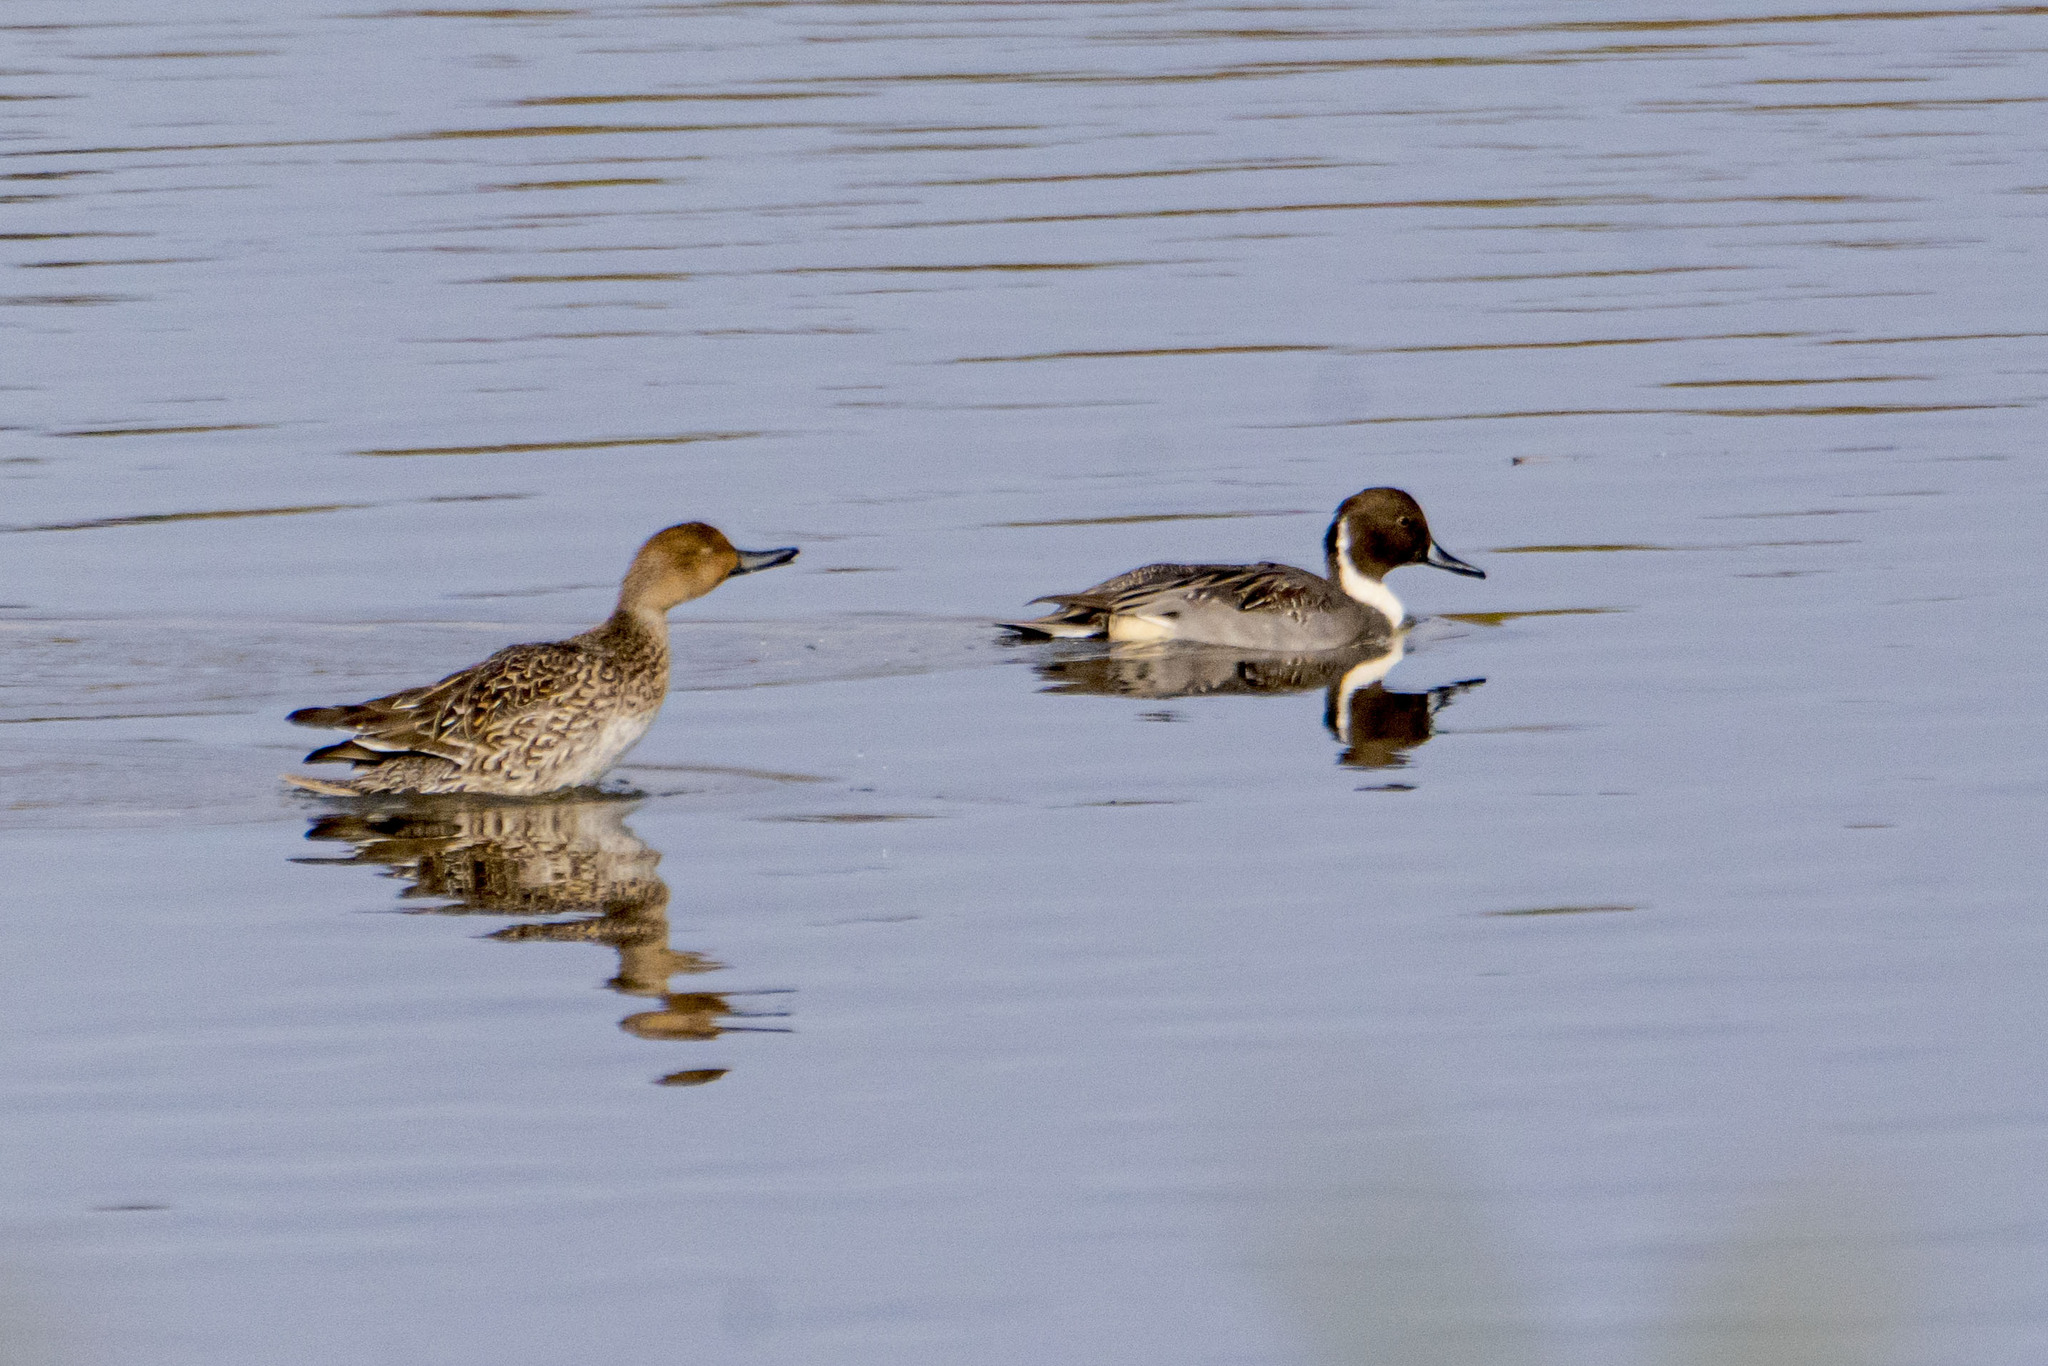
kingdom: Animalia
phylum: Chordata
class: Aves
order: Anseriformes
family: Anatidae
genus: Anas
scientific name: Anas acuta
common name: Northern pintail
